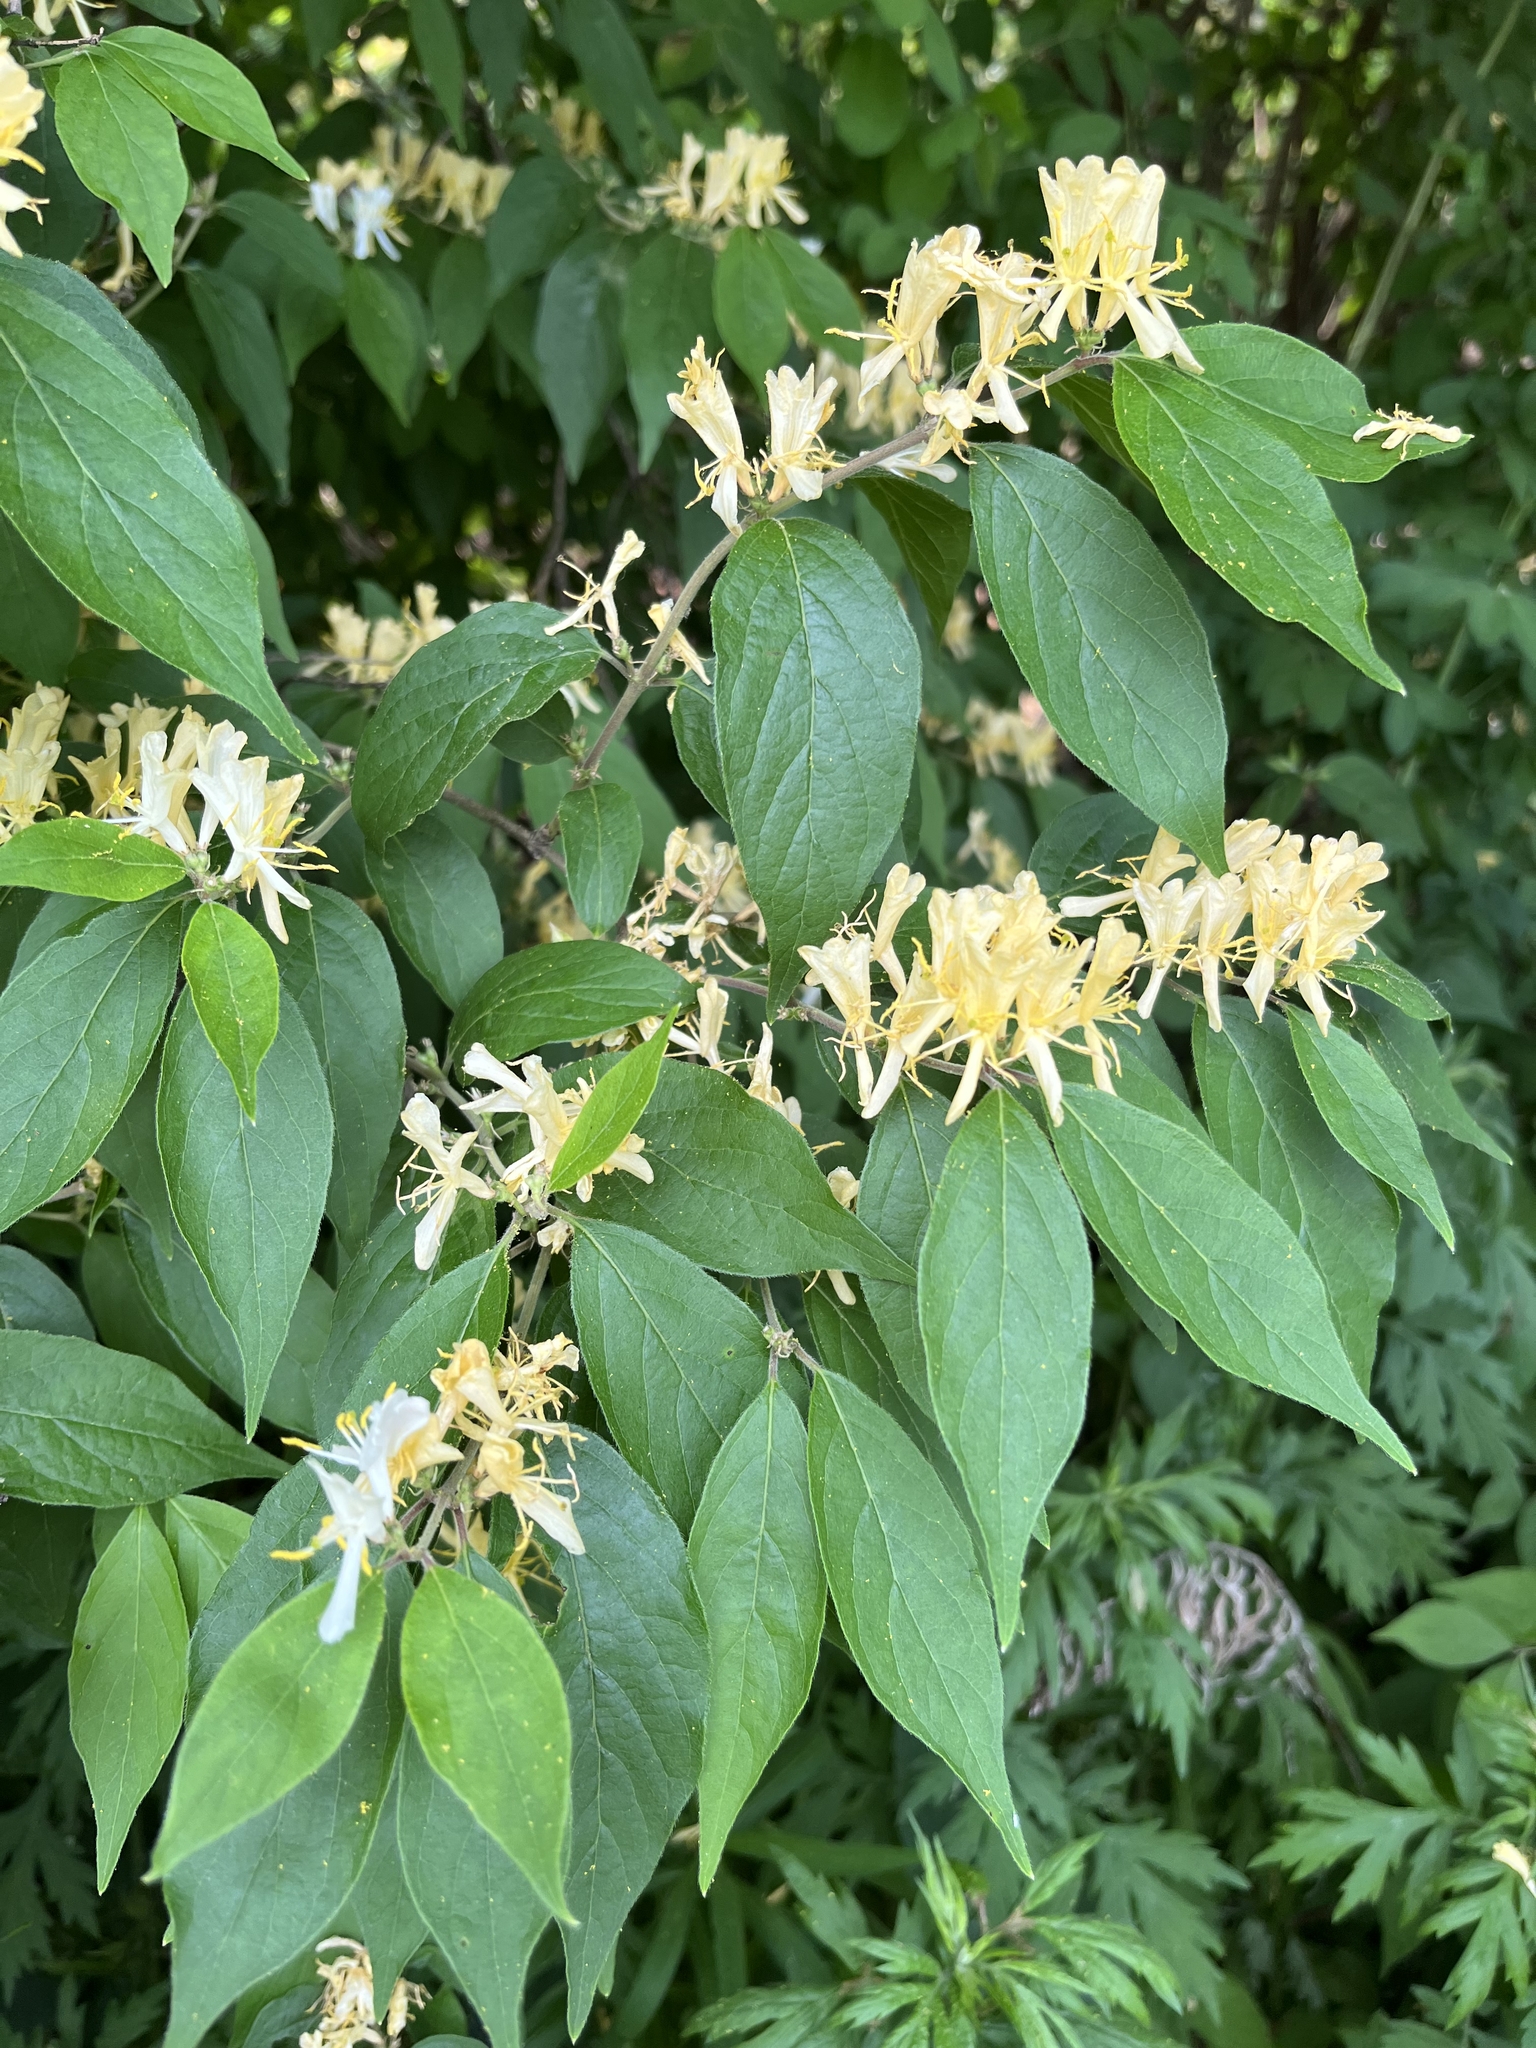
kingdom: Plantae
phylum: Tracheophyta
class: Magnoliopsida
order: Dipsacales
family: Caprifoliaceae
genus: Lonicera
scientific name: Lonicera maackii
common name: Amur honeysuckle
